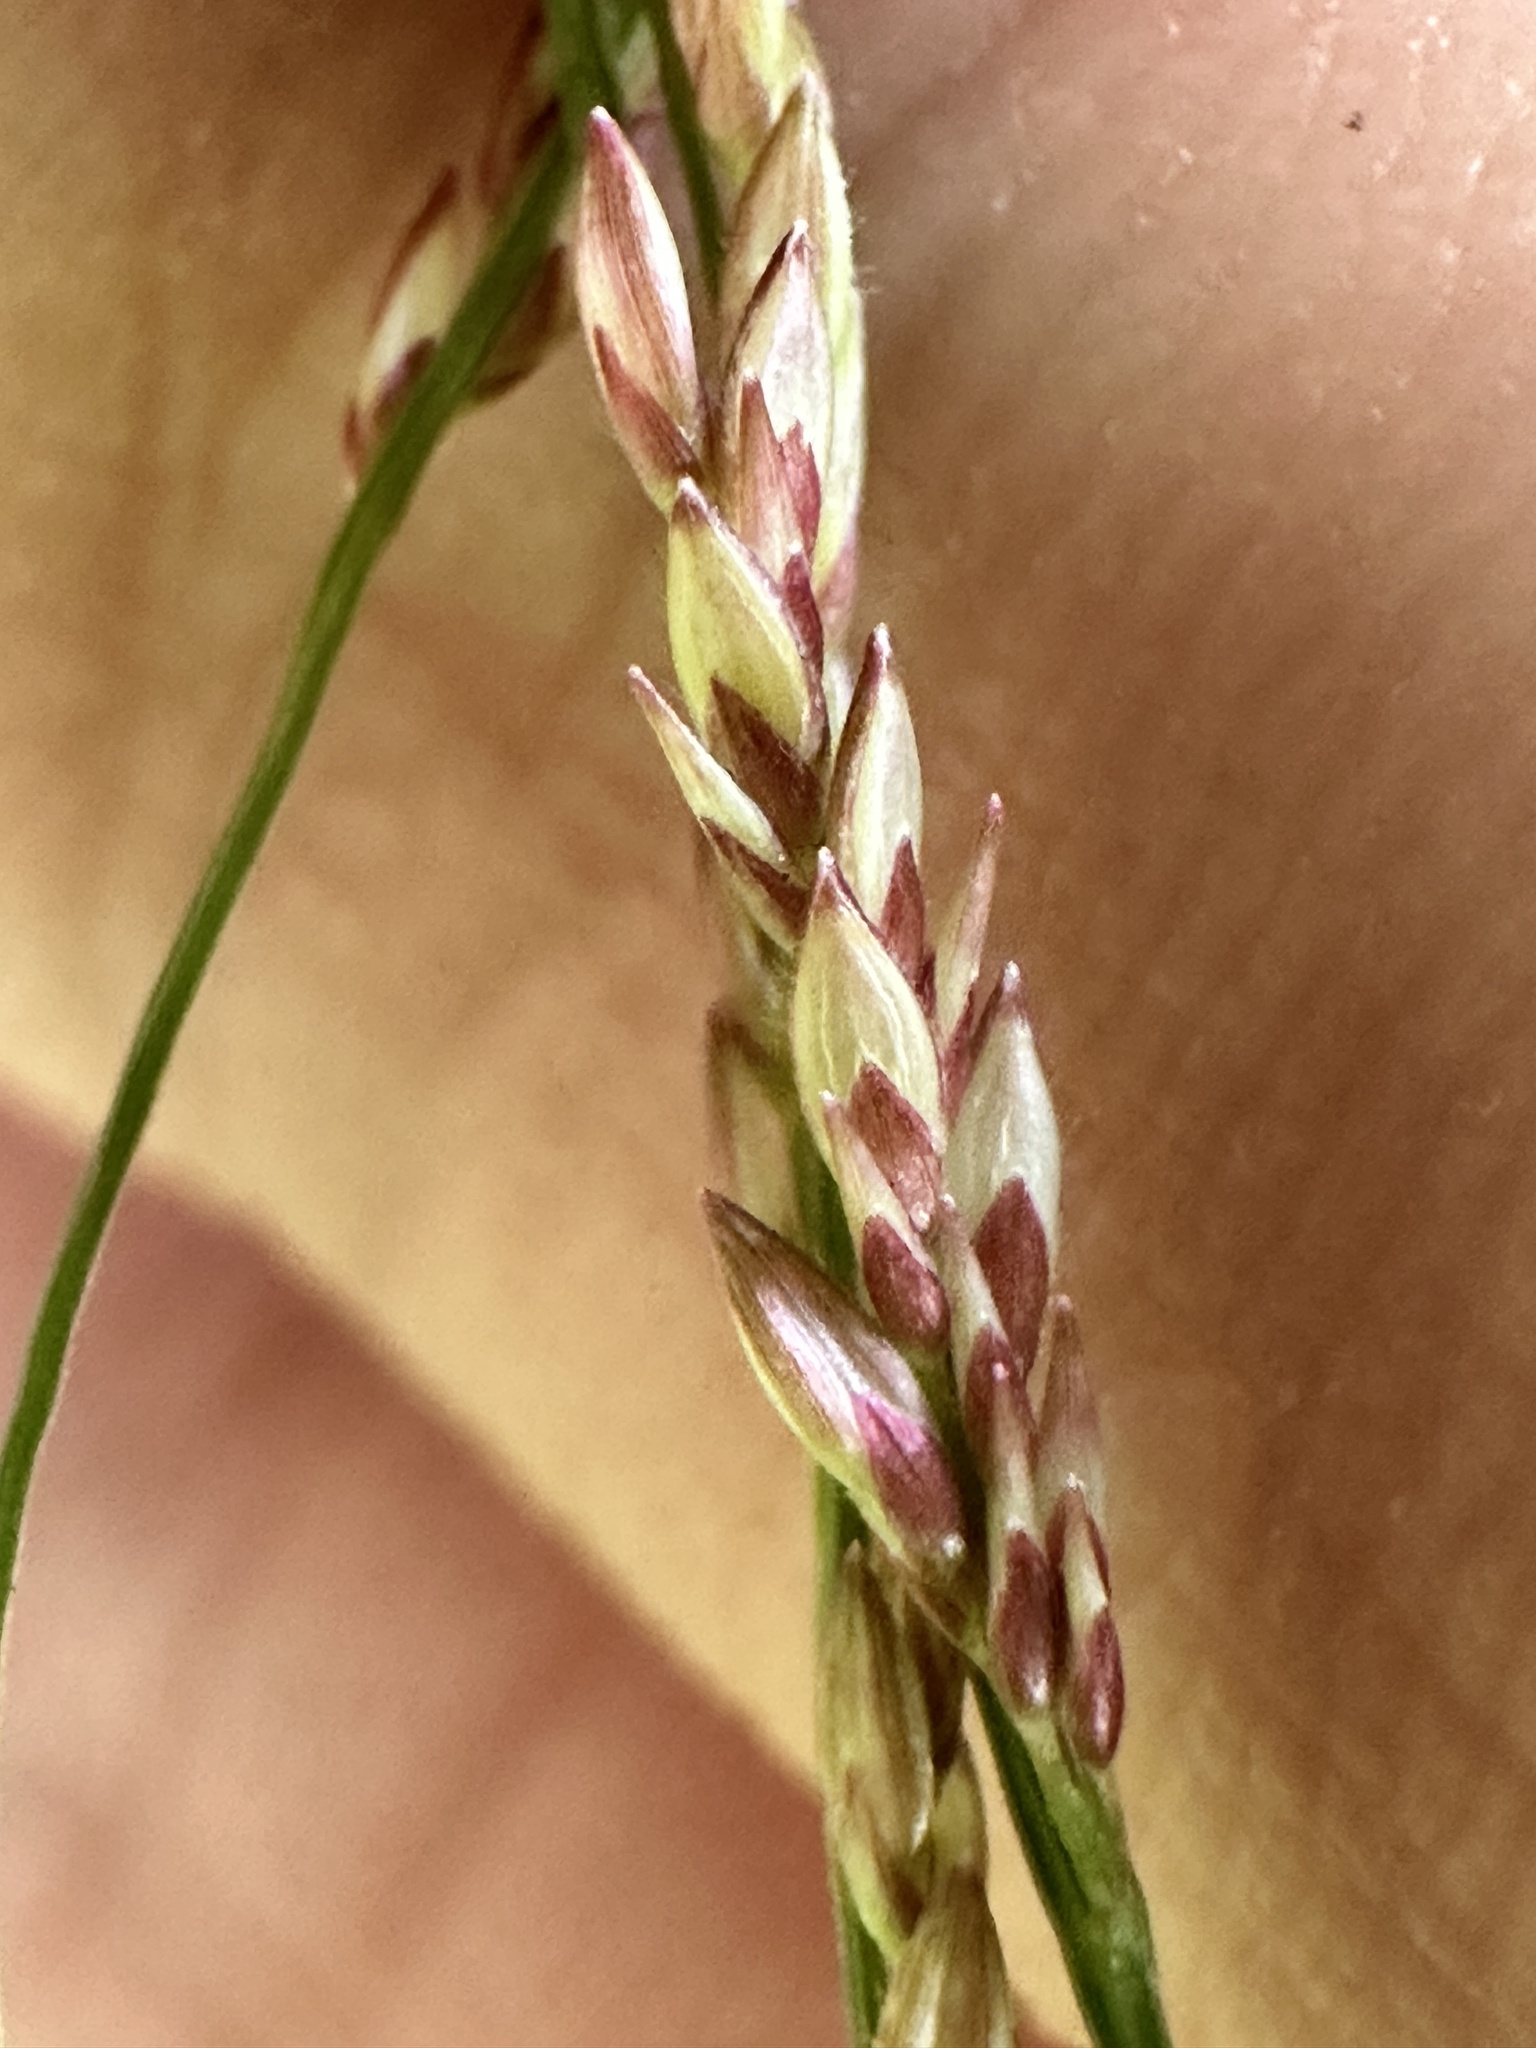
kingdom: Plantae
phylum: Tracheophyta
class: Liliopsida
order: Poales
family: Poaceae
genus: Ottochloa
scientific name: Ottochloa nodosa
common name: Slender-panic grass
